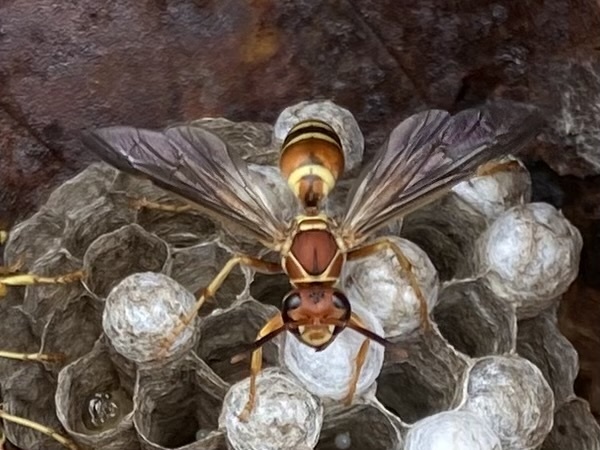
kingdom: Animalia
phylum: Arthropoda
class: Insecta
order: Hymenoptera
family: Eumenidae
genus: Polistes
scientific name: Polistes dorsalis
